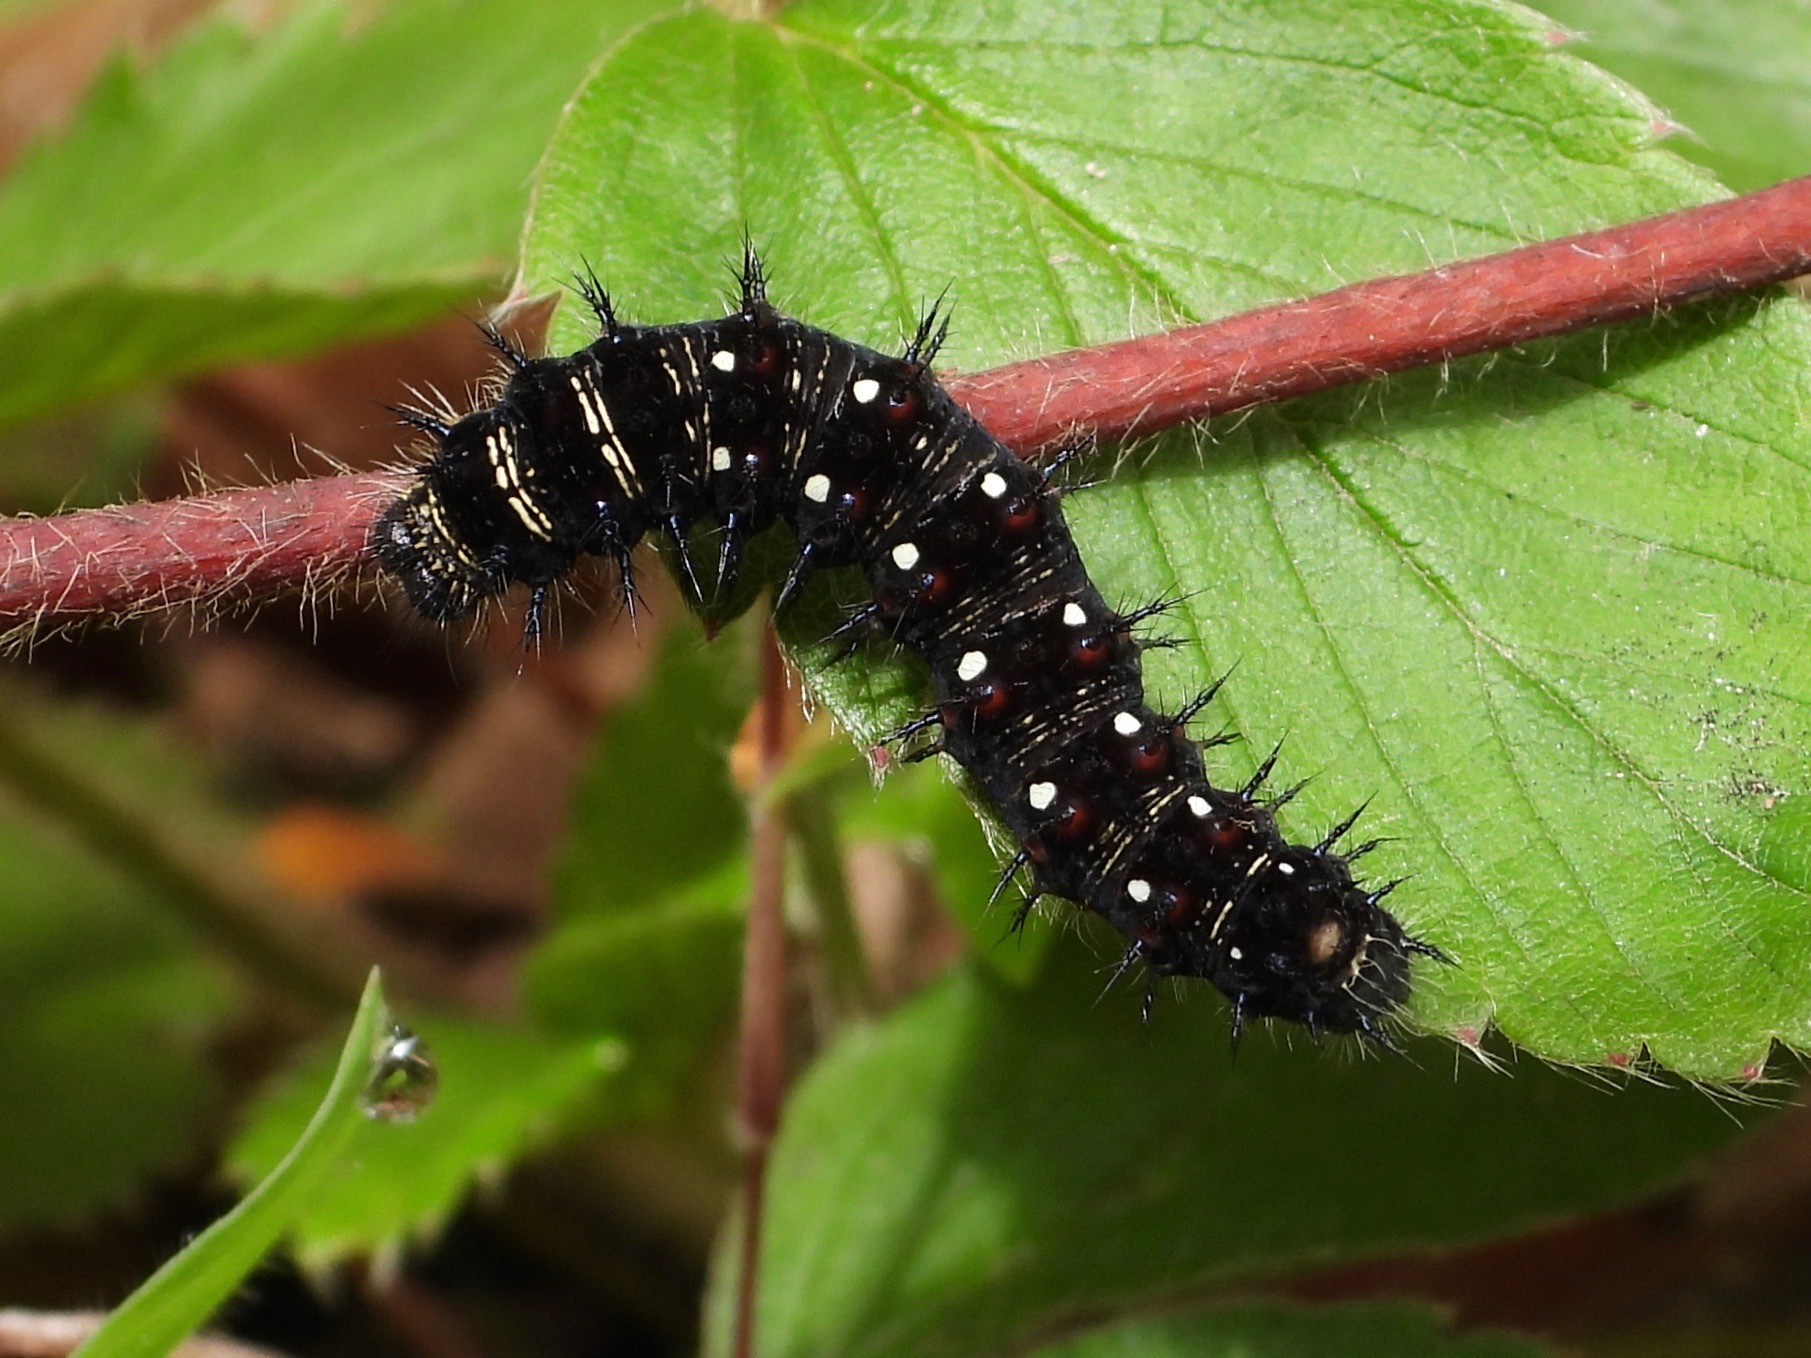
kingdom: Animalia
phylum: Arthropoda
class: Insecta
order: Lepidoptera
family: Nymphalidae
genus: Vanessa
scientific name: Vanessa virginiensis
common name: American lady
